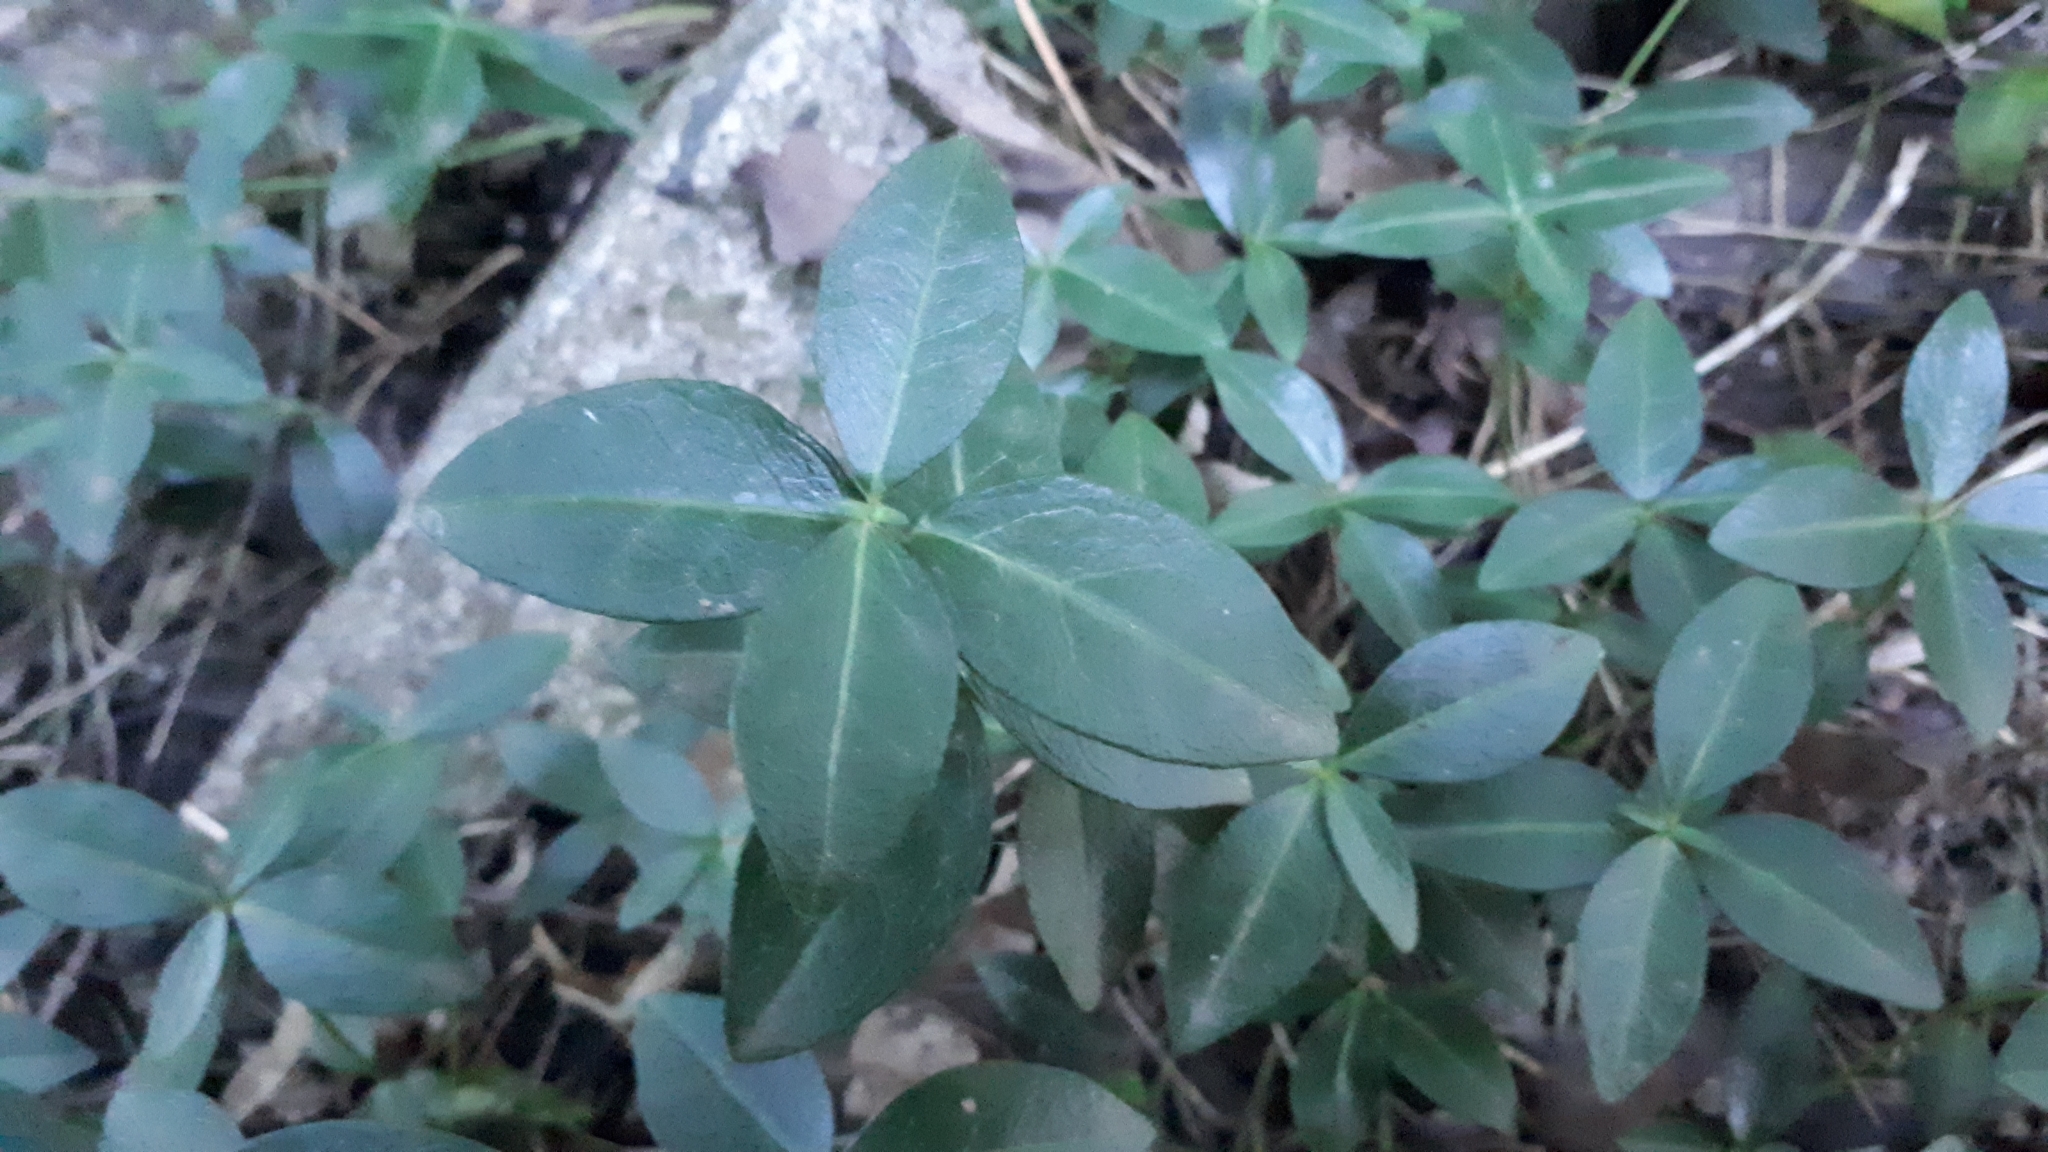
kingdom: Plantae
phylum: Tracheophyta
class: Magnoliopsida
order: Gentianales
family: Apocynaceae
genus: Vinca
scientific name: Vinca minor
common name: Lesser periwinkle
